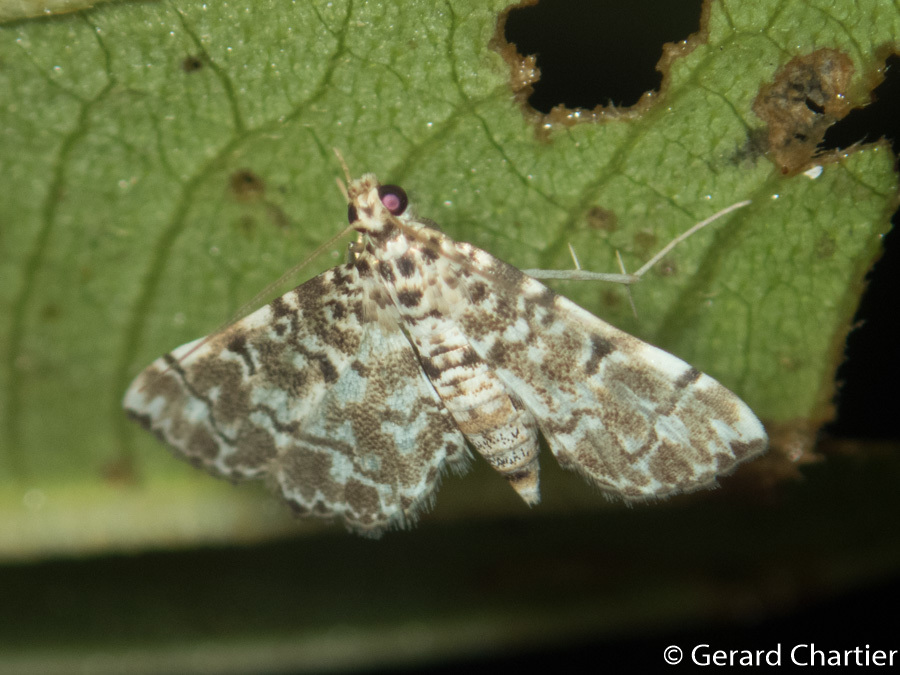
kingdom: Animalia
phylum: Arthropoda
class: Insecta
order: Lepidoptera
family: Crambidae
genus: Metoeca
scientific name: Metoeca foedalis
